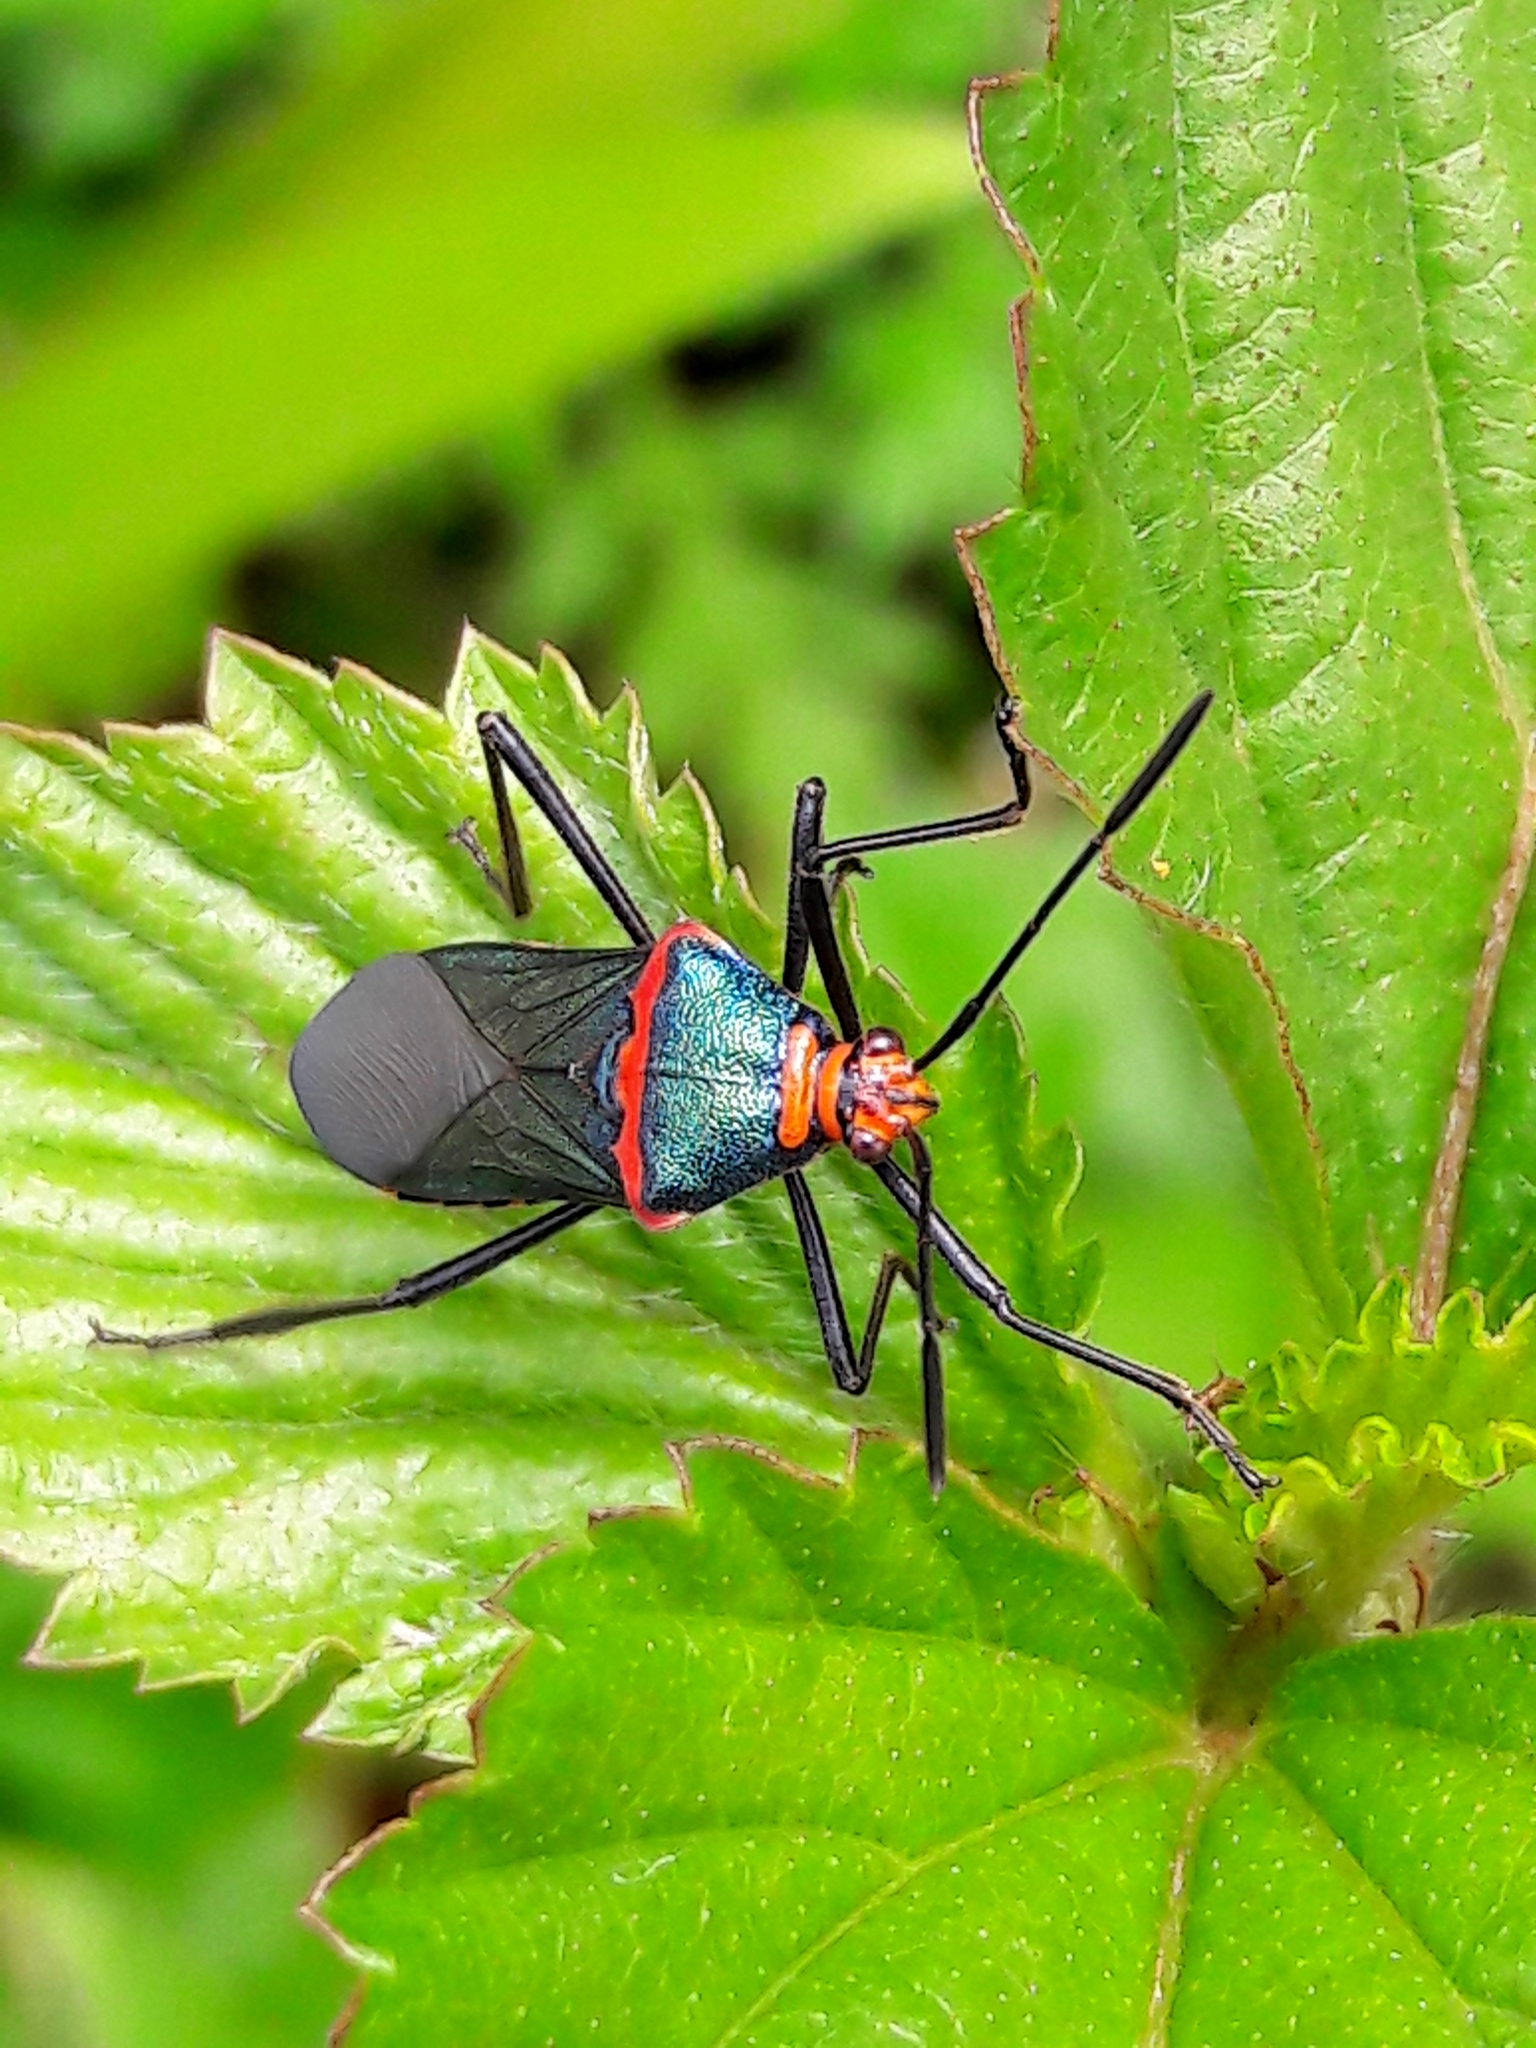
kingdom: Animalia
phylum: Arthropoda
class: Insecta
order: Hemiptera
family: Coreidae
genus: Sphictyrtus
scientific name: Sphictyrtus chrysis
